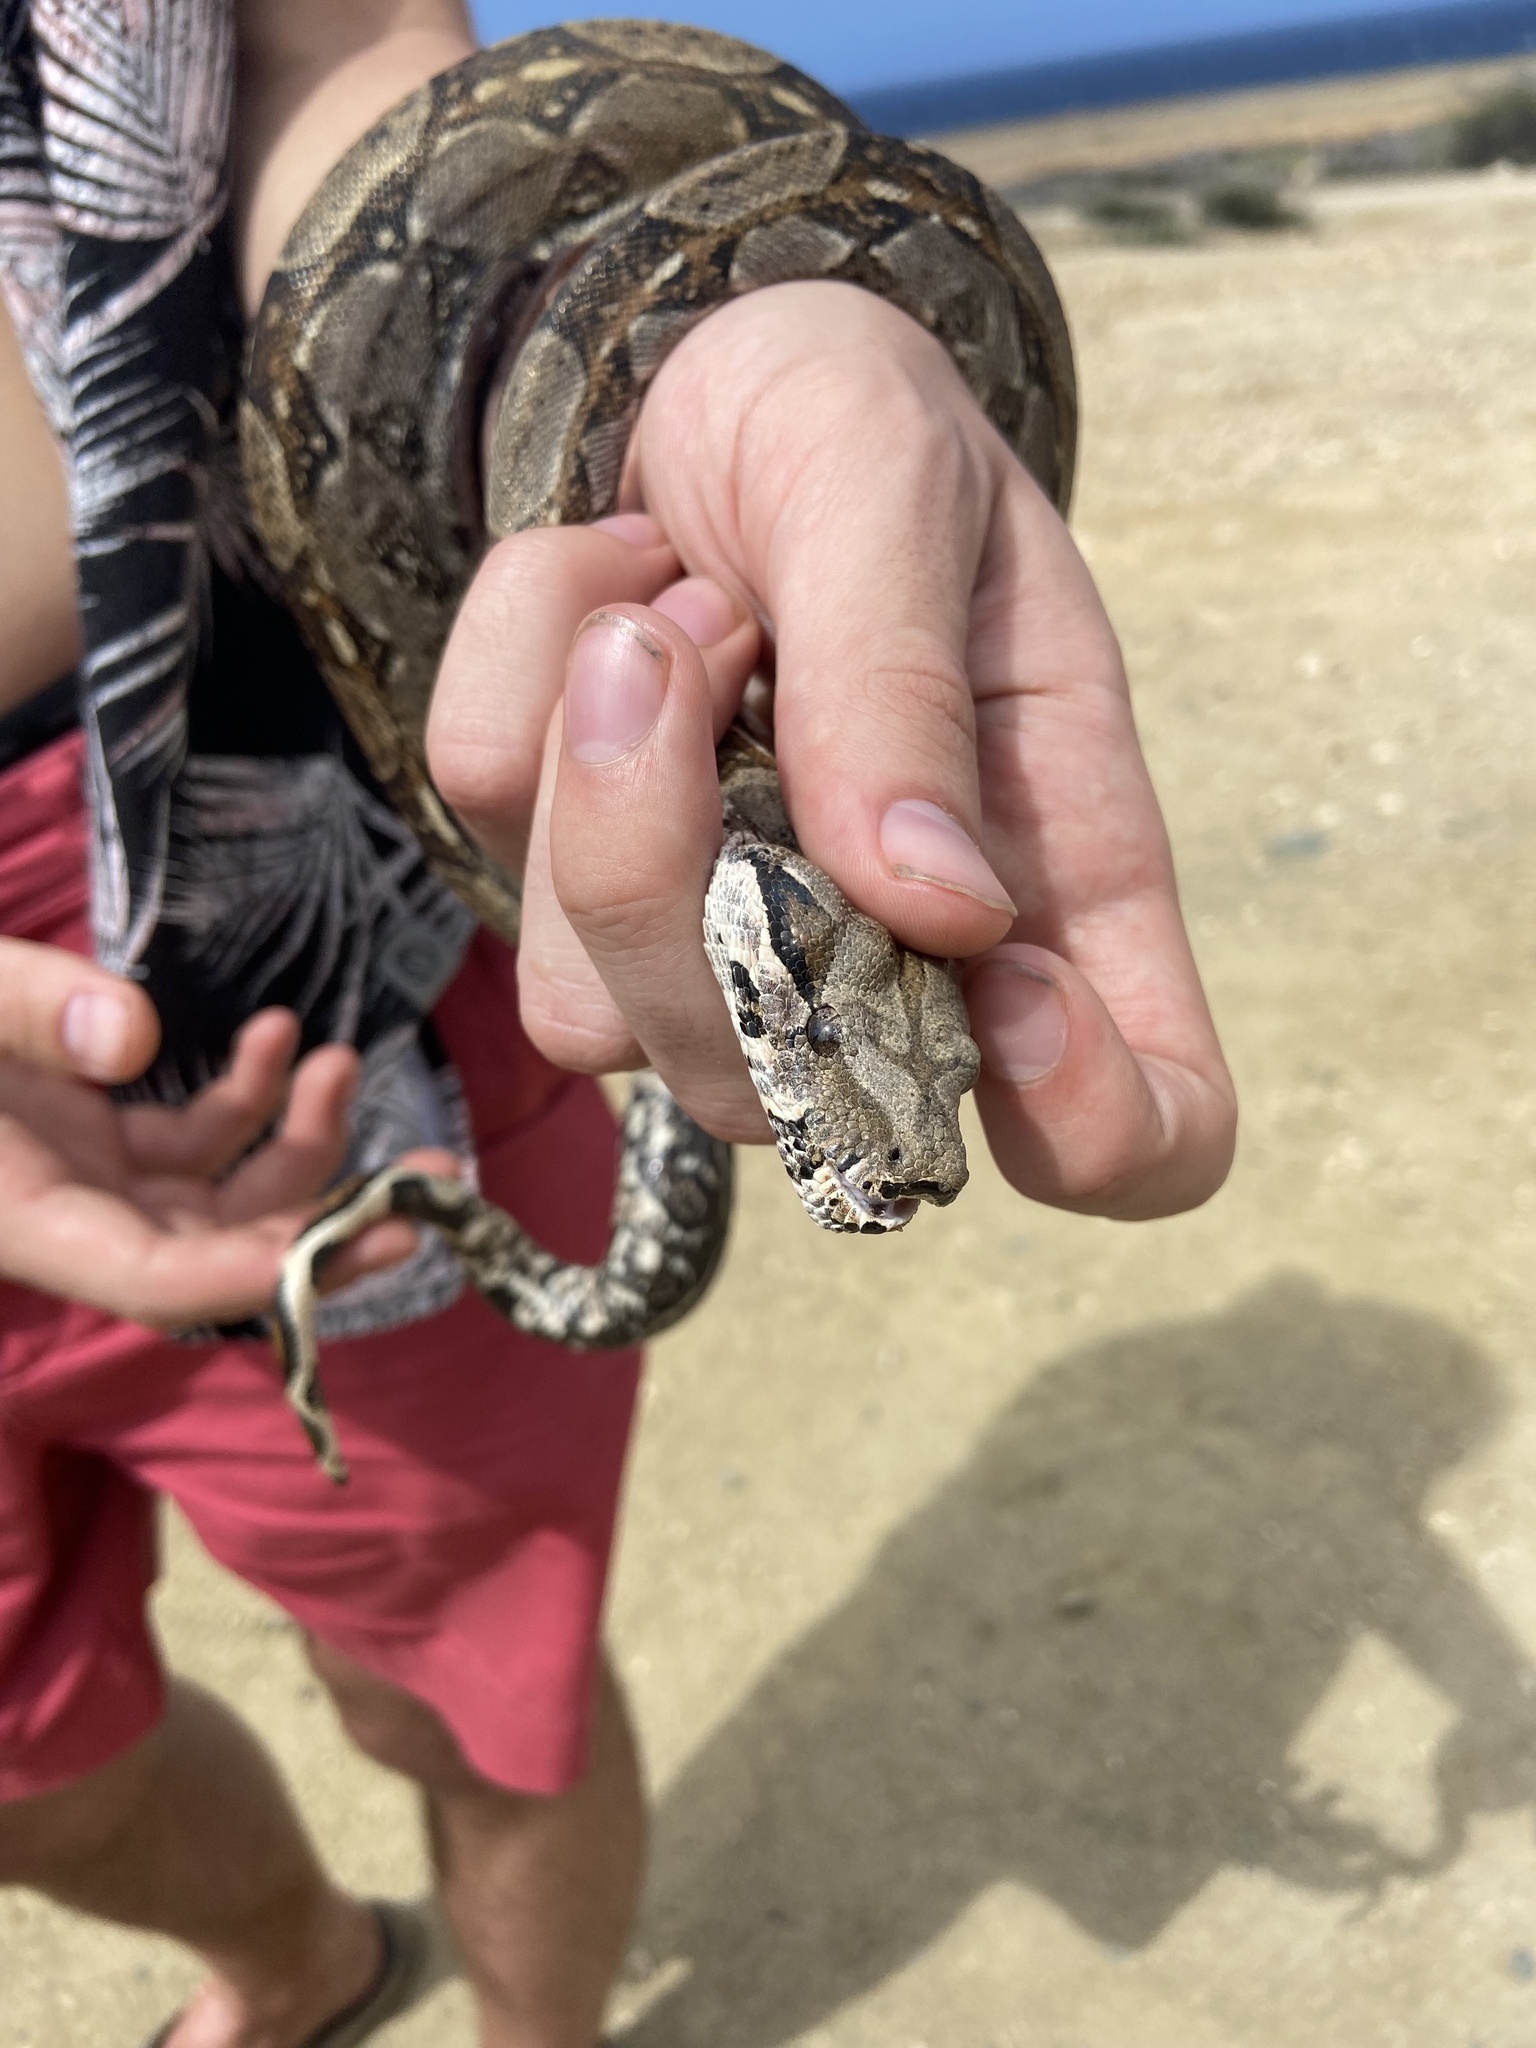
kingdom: Animalia
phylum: Chordata
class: Squamata
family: Boidae
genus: Boa
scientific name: Boa constrictor
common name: Boa constrictor
